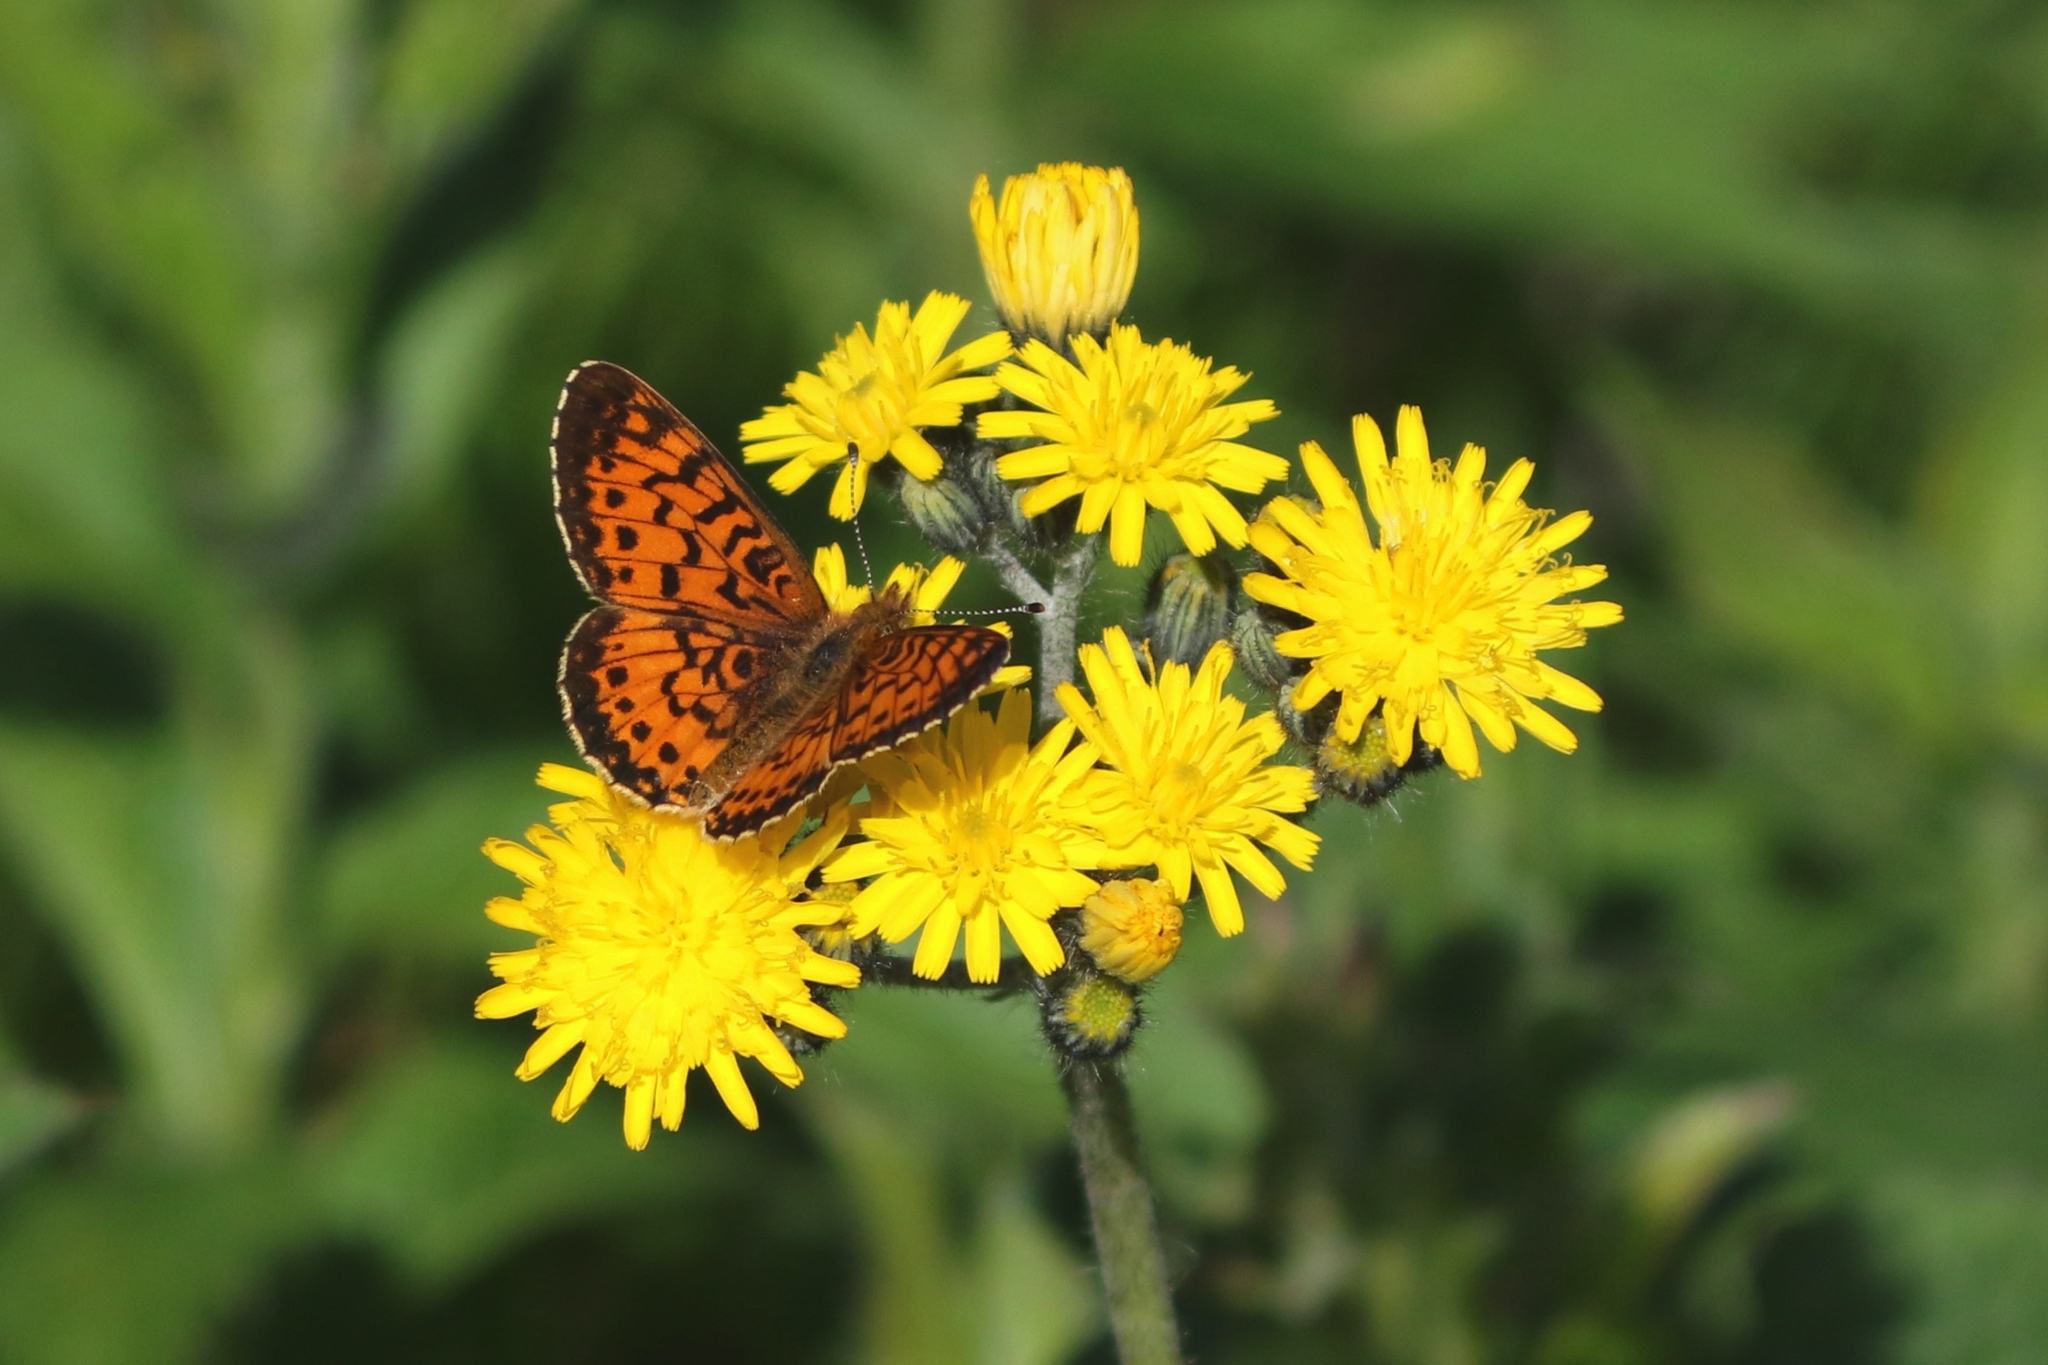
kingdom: Animalia
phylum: Arthropoda
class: Insecta
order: Lepidoptera
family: Nymphalidae
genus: Boloria
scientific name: Boloria
